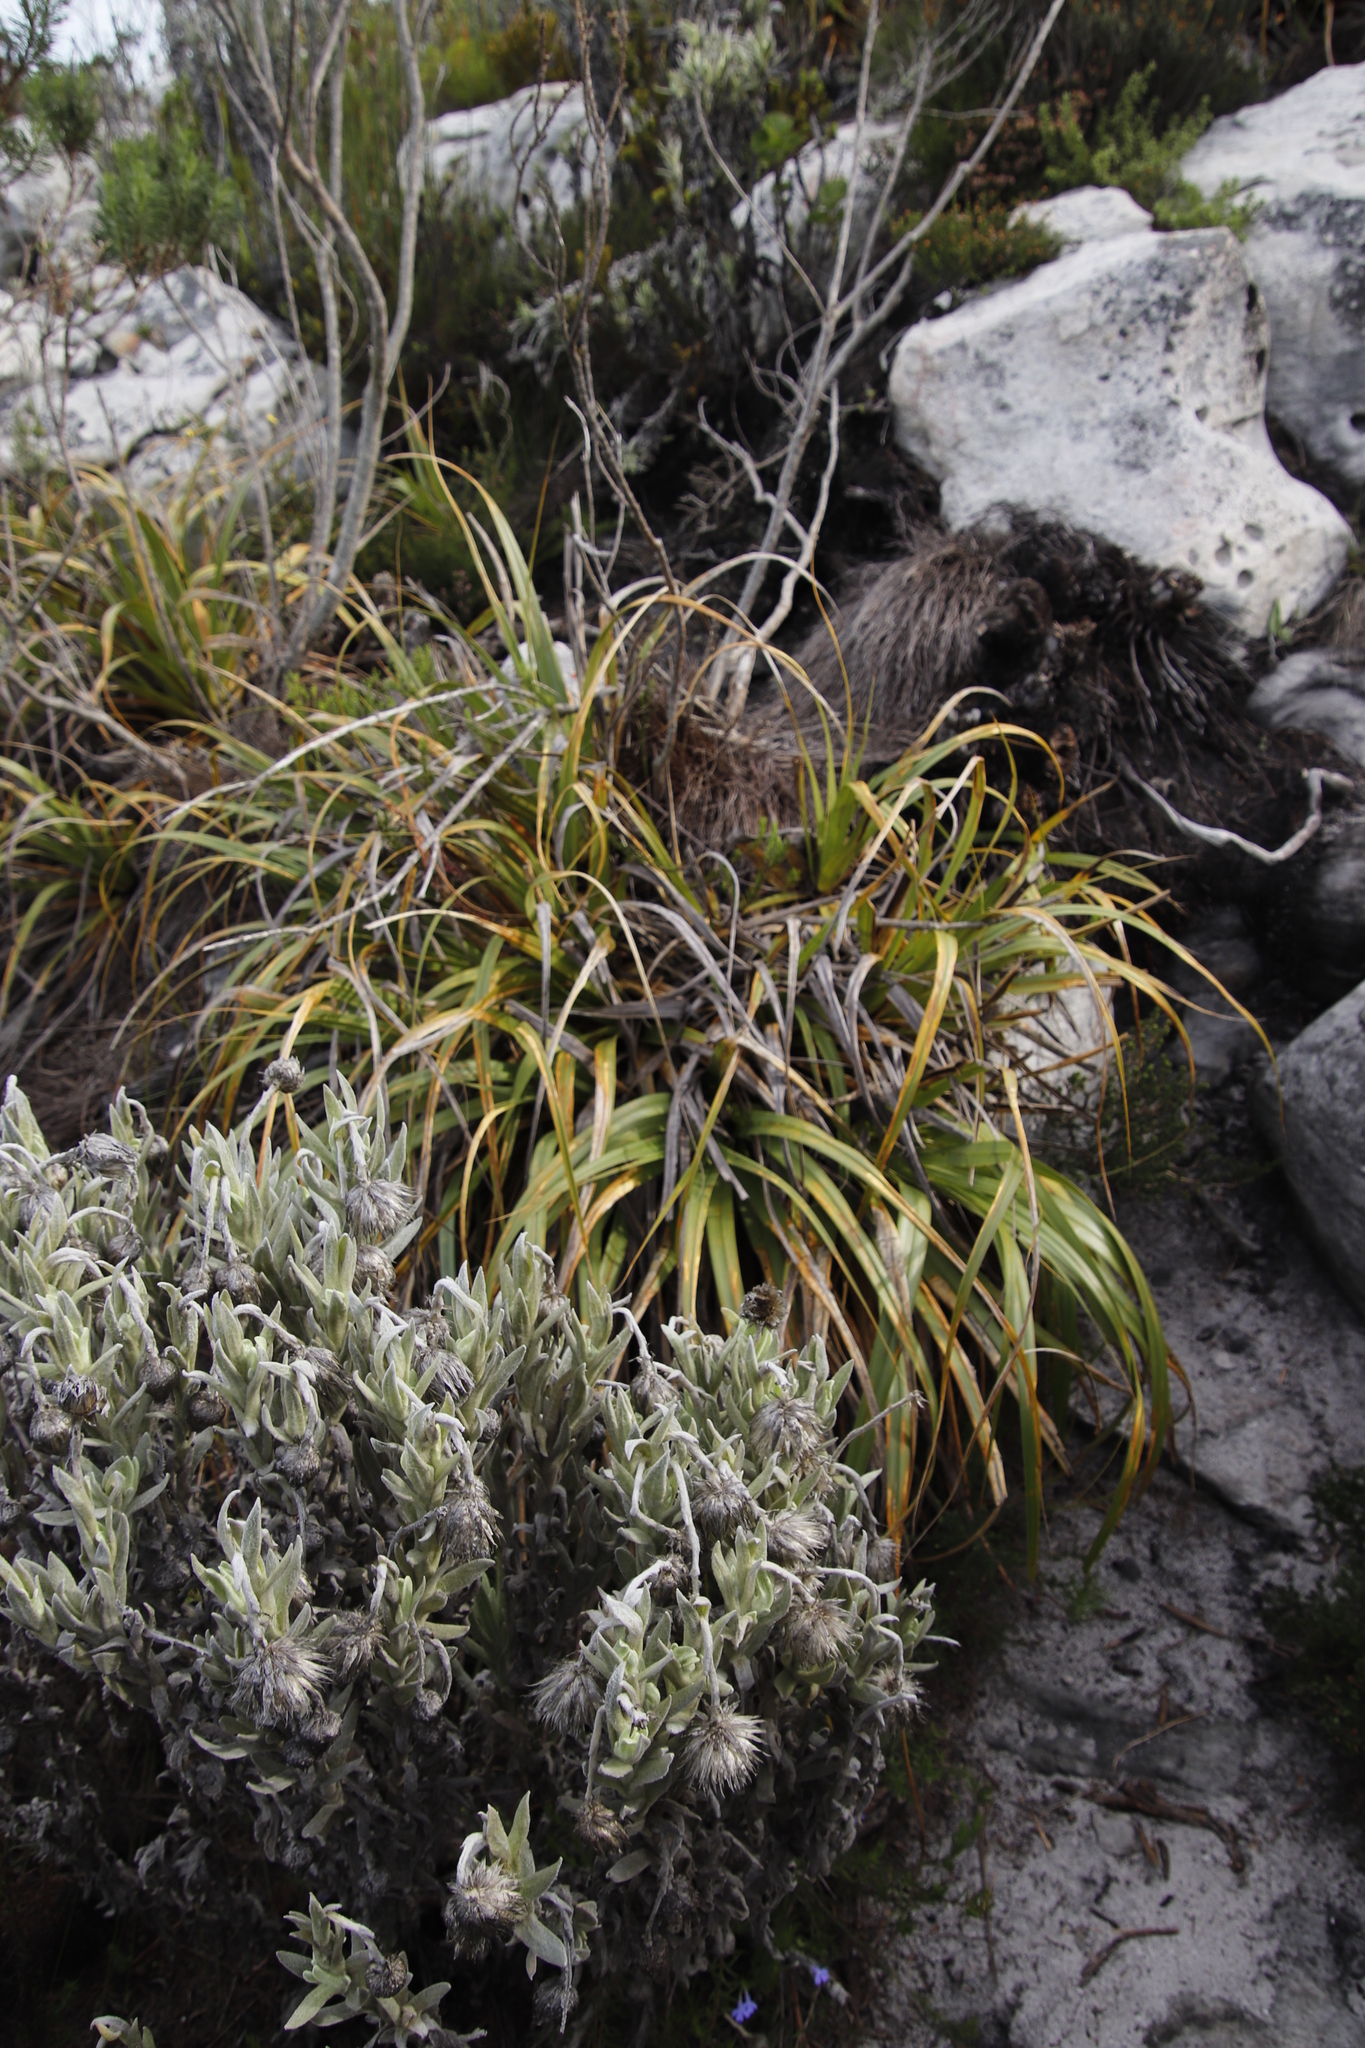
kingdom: Plantae
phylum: Tracheophyta
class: Liliopsida
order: Poales
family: Cyperaceae
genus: Tetraria
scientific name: Tetraria thermalis
